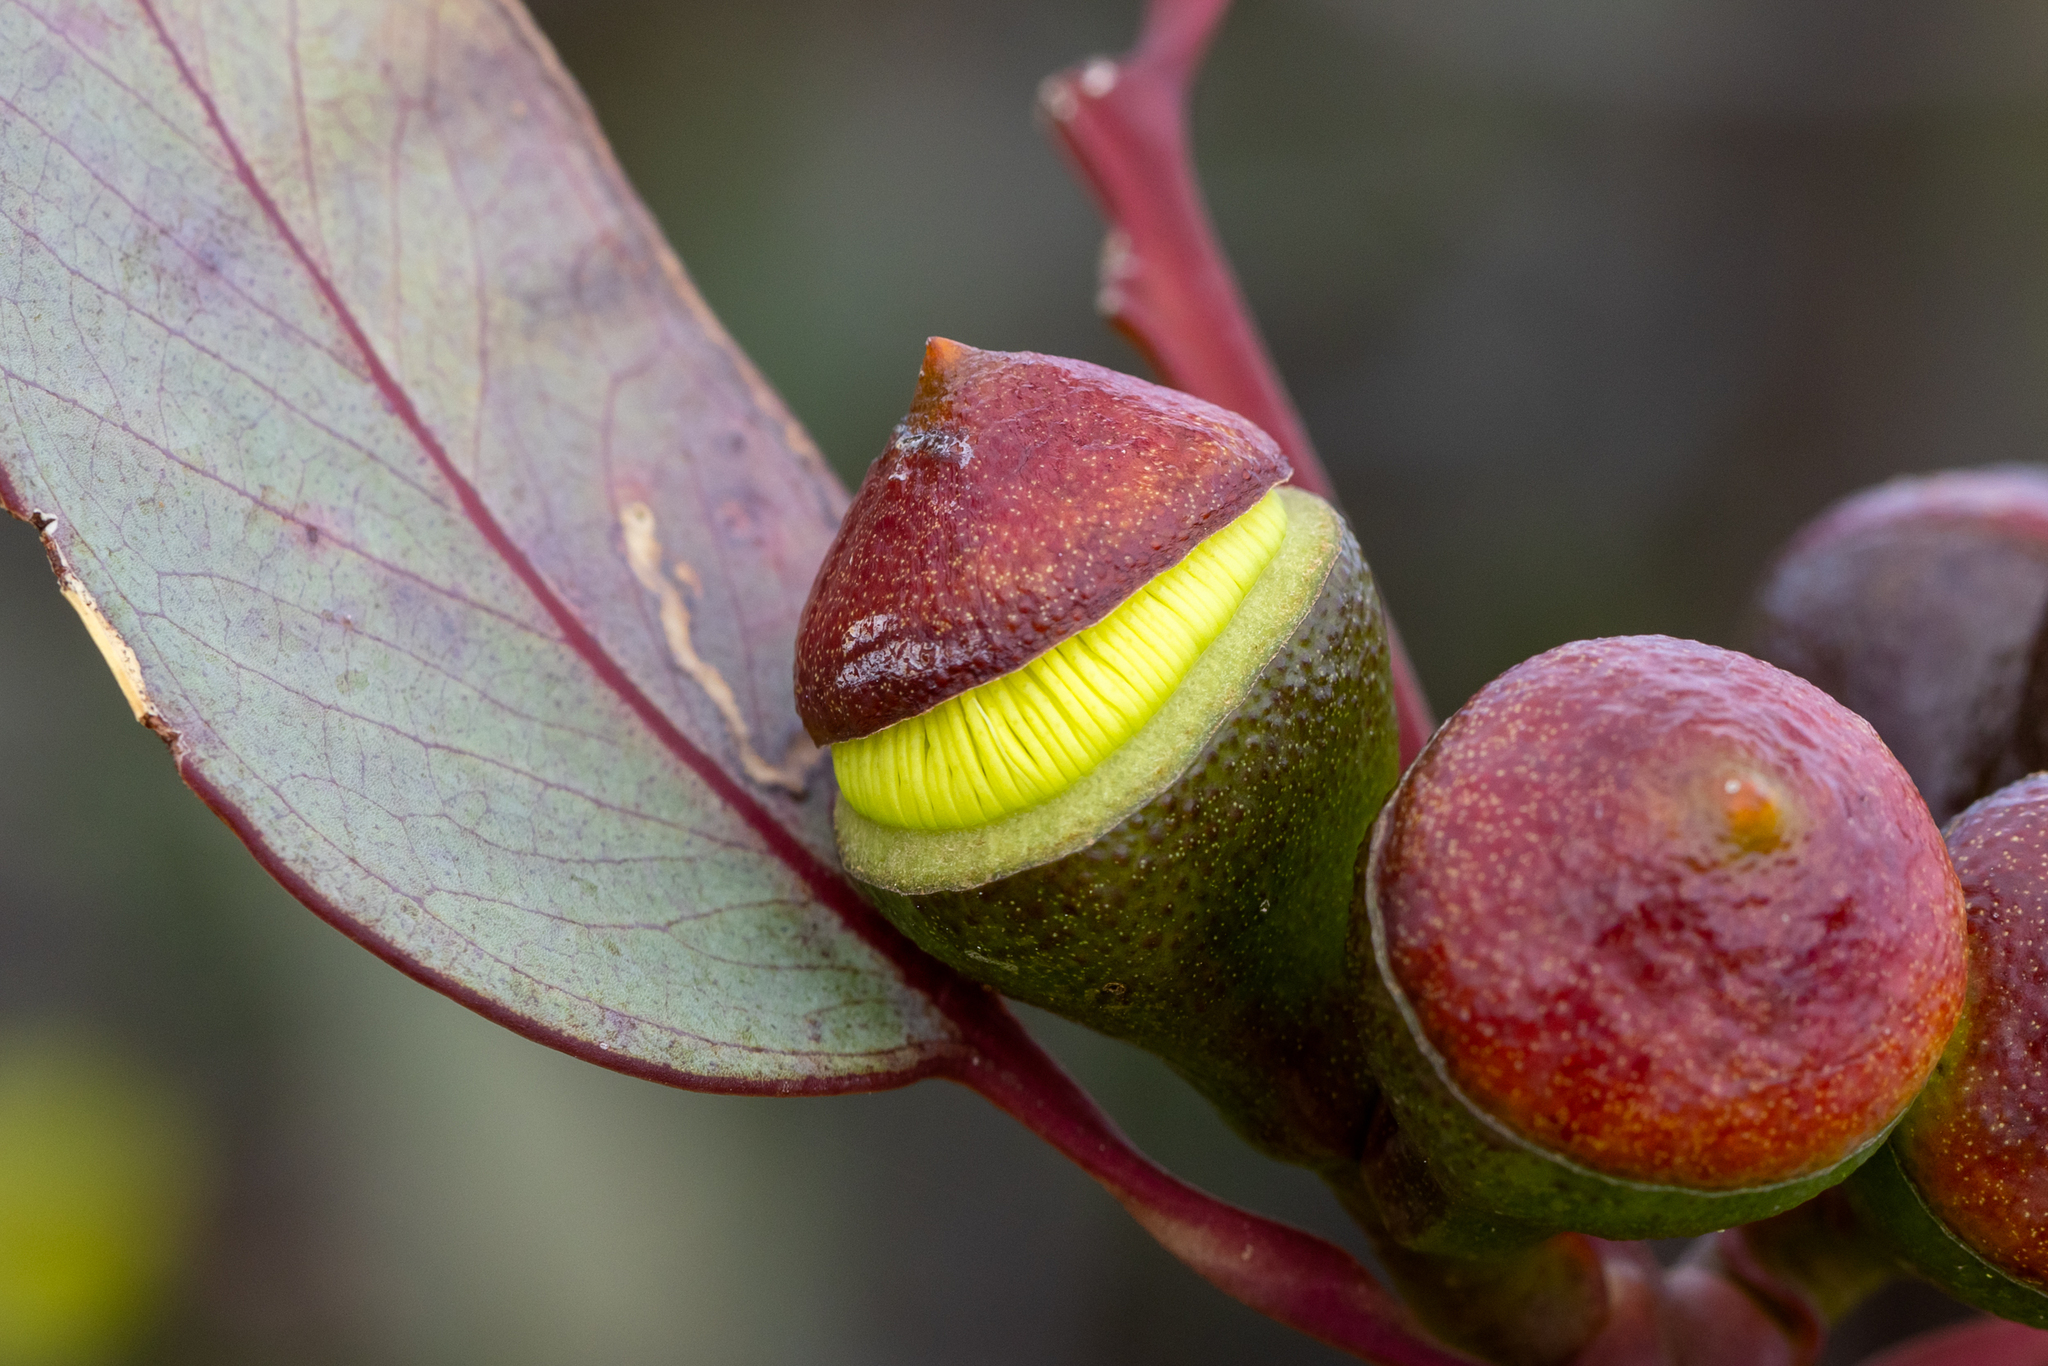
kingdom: Plantae
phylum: Tracheophyta
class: Magnoliopsida
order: Myrtales
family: Myrtaceae
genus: Eucalyptus
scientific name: Eucalyptus preissiana
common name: Stirling range mallee
